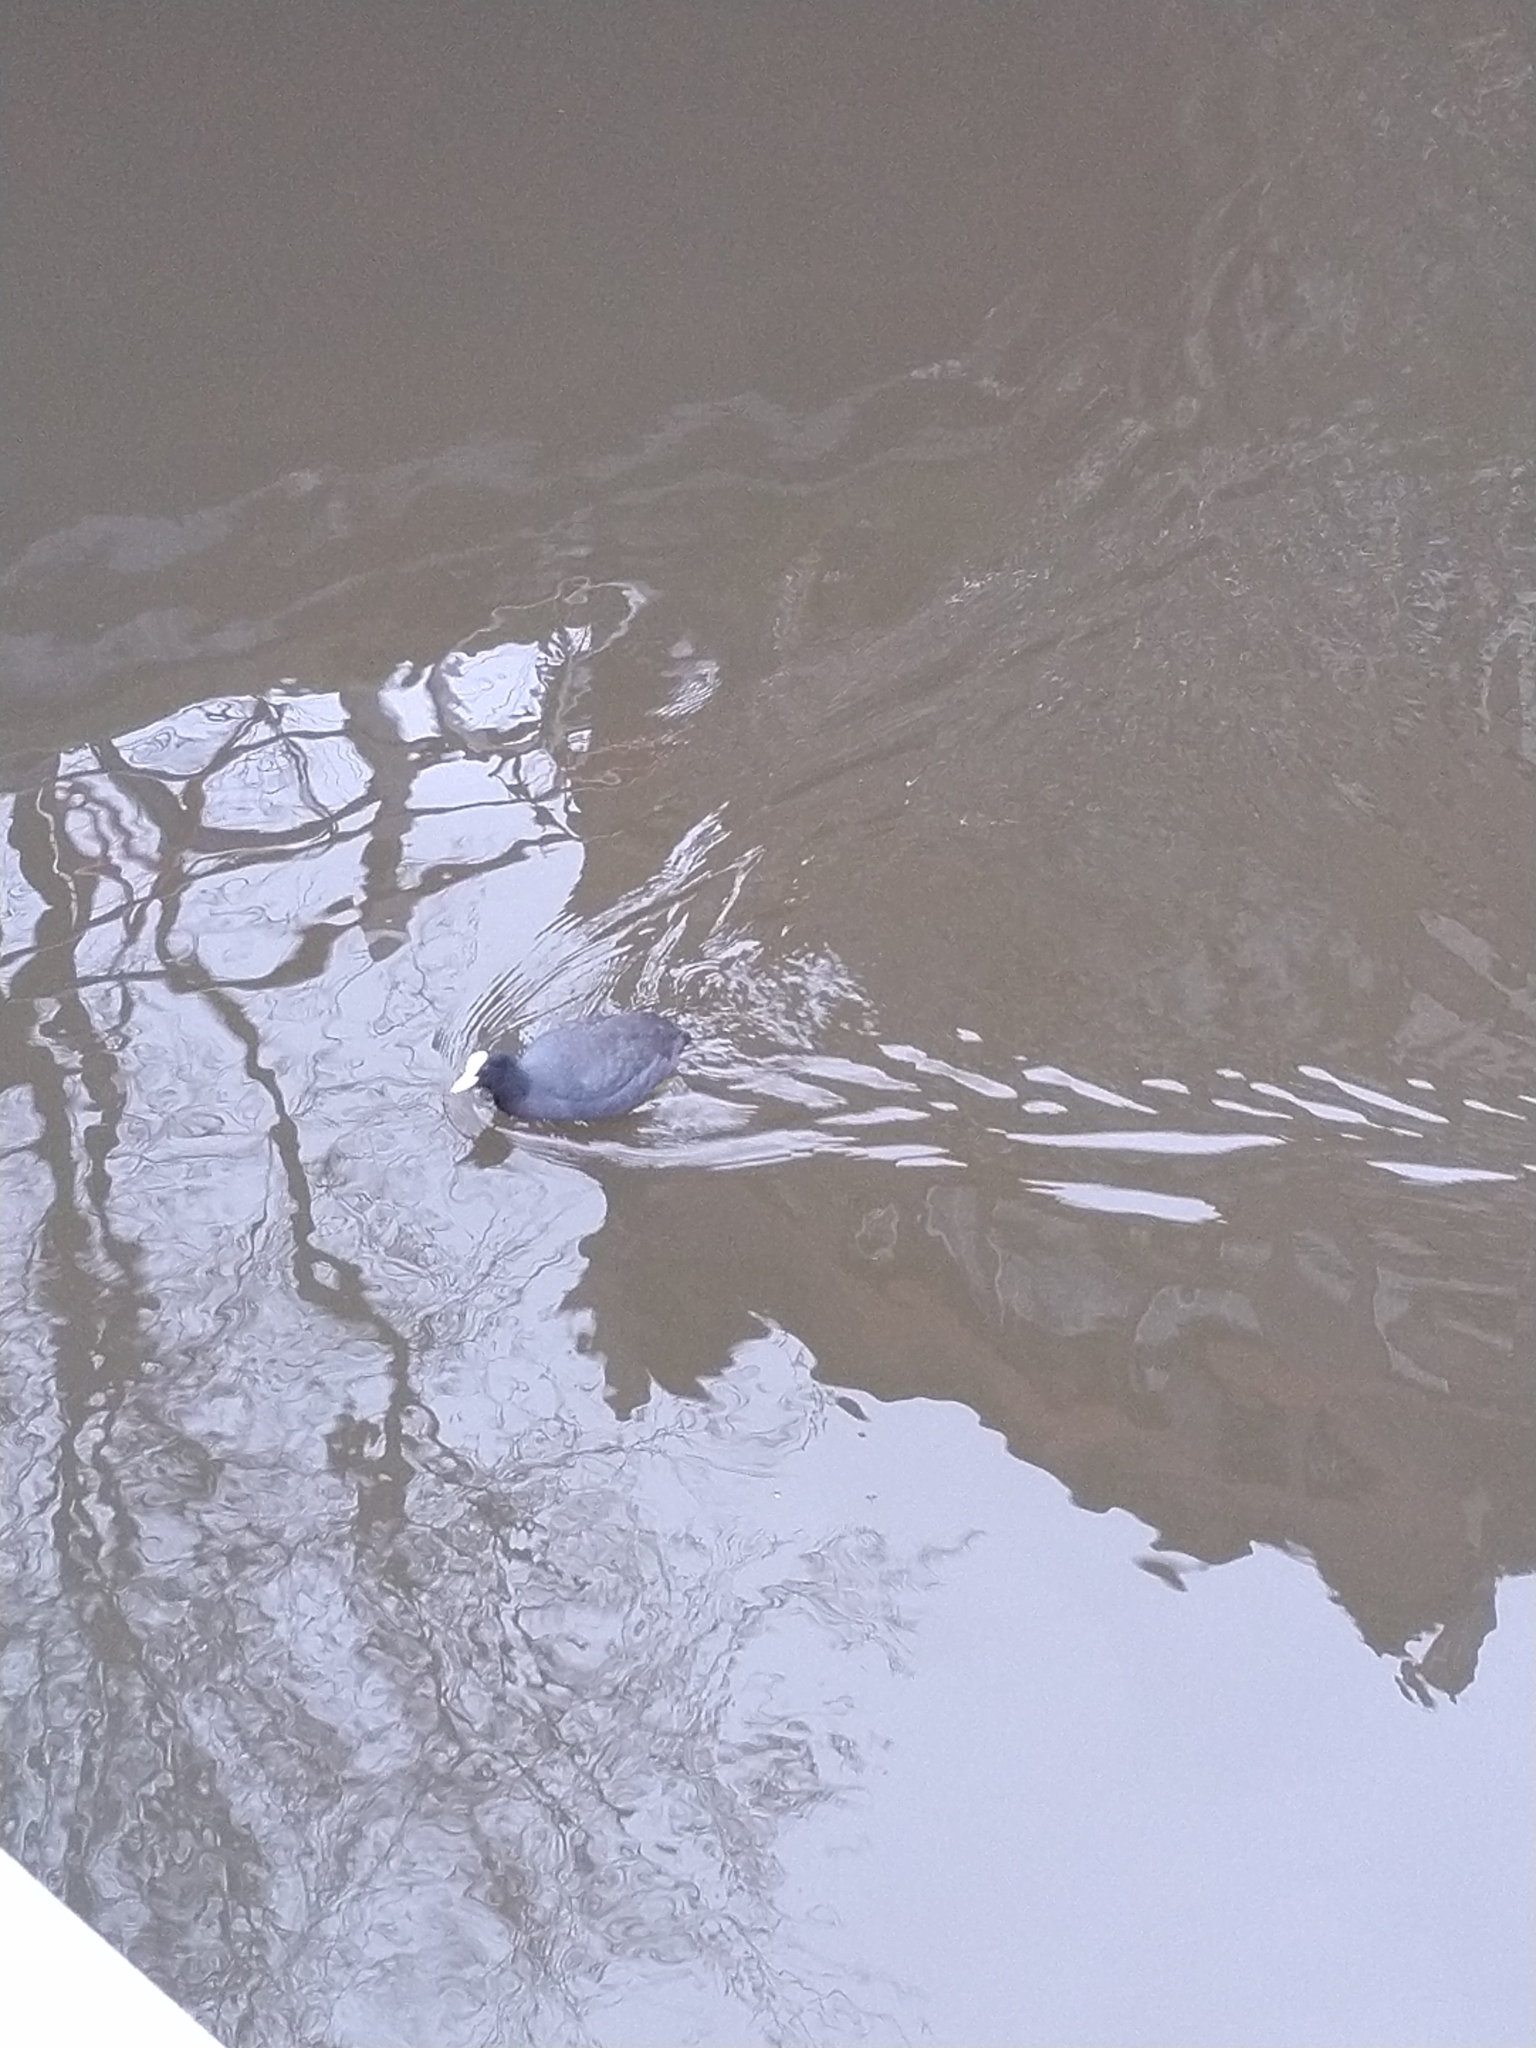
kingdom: Animalia
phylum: Chordata
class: Aves
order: Gruiformes
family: Rallidae
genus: Fulica
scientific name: Fulica atra
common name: Eurasian coot
